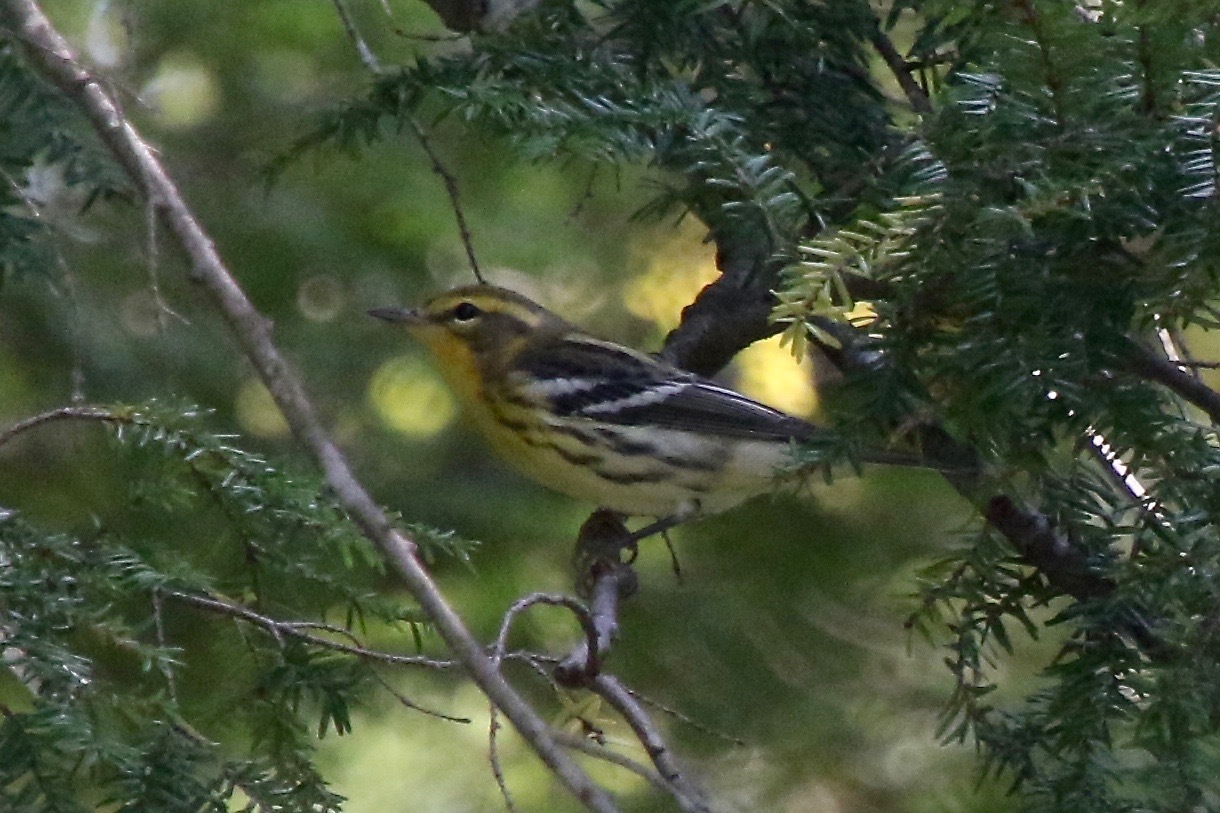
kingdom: Animalia
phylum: Chordata
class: Aves
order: Passeriformes
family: Parulidae
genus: Setophaga
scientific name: Setophaga fusca
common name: Blackburnian warbler
